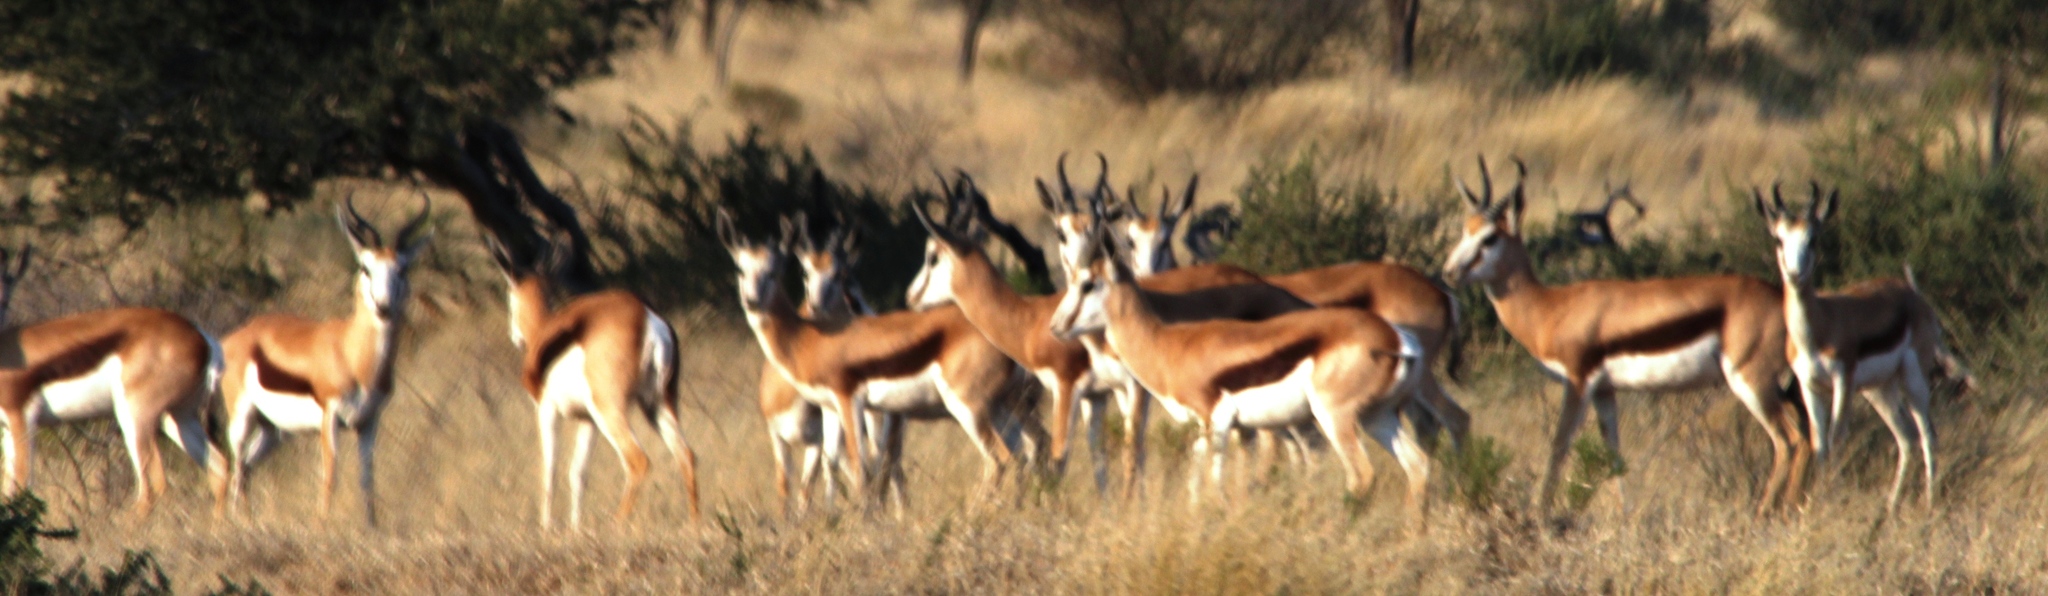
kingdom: Animalia
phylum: Chordata
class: Mammalia
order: Artiodactyla
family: Bovidae
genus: Antidorcas
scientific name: Antidorcas marsupialis
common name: Springbok
